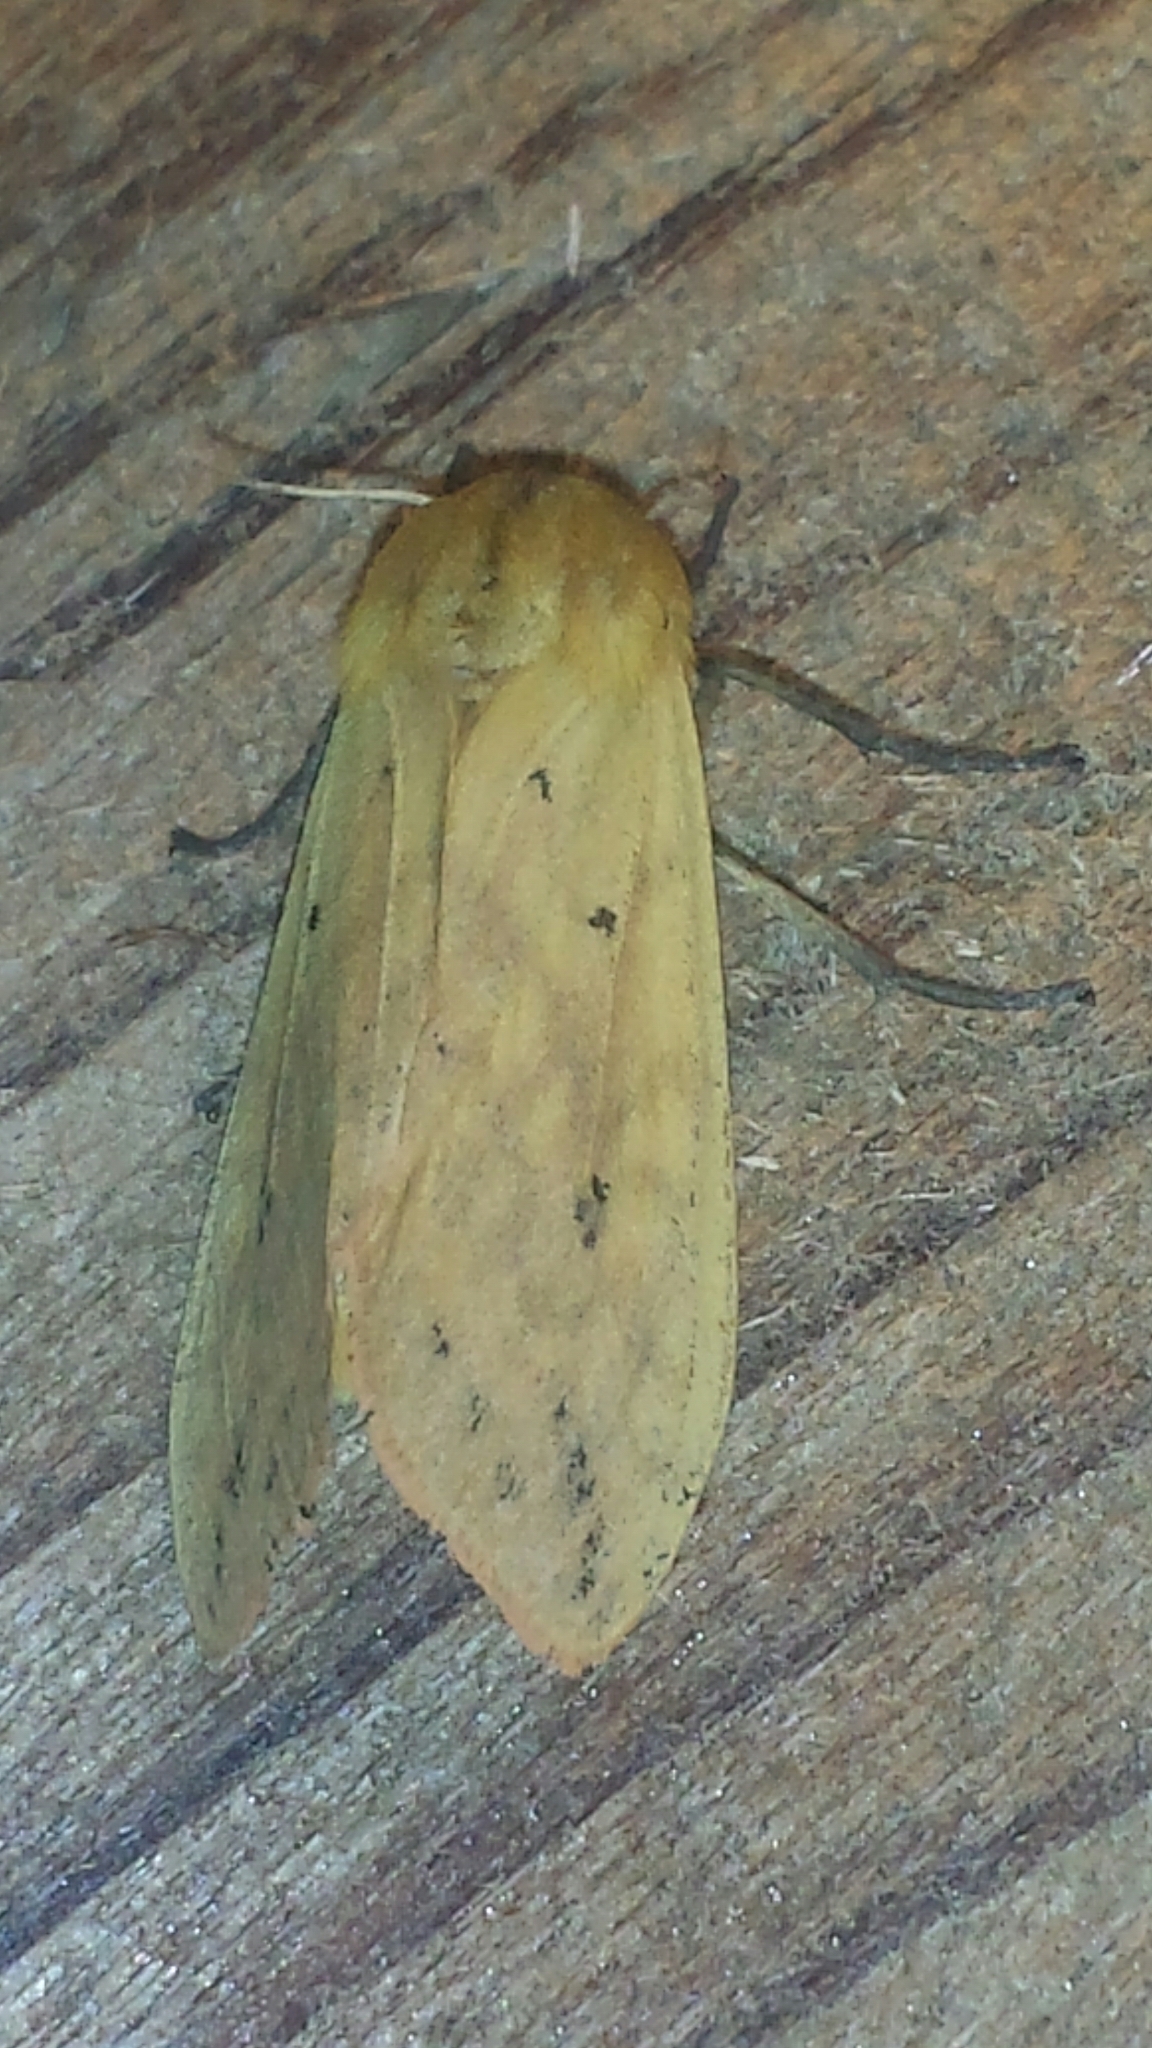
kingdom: Animalia
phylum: Arthropoda
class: Insecta
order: Lepidoptera
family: Erebidae
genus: Pyrrharctia
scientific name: Pyrrharctia isabella
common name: Isabella tiger moth
